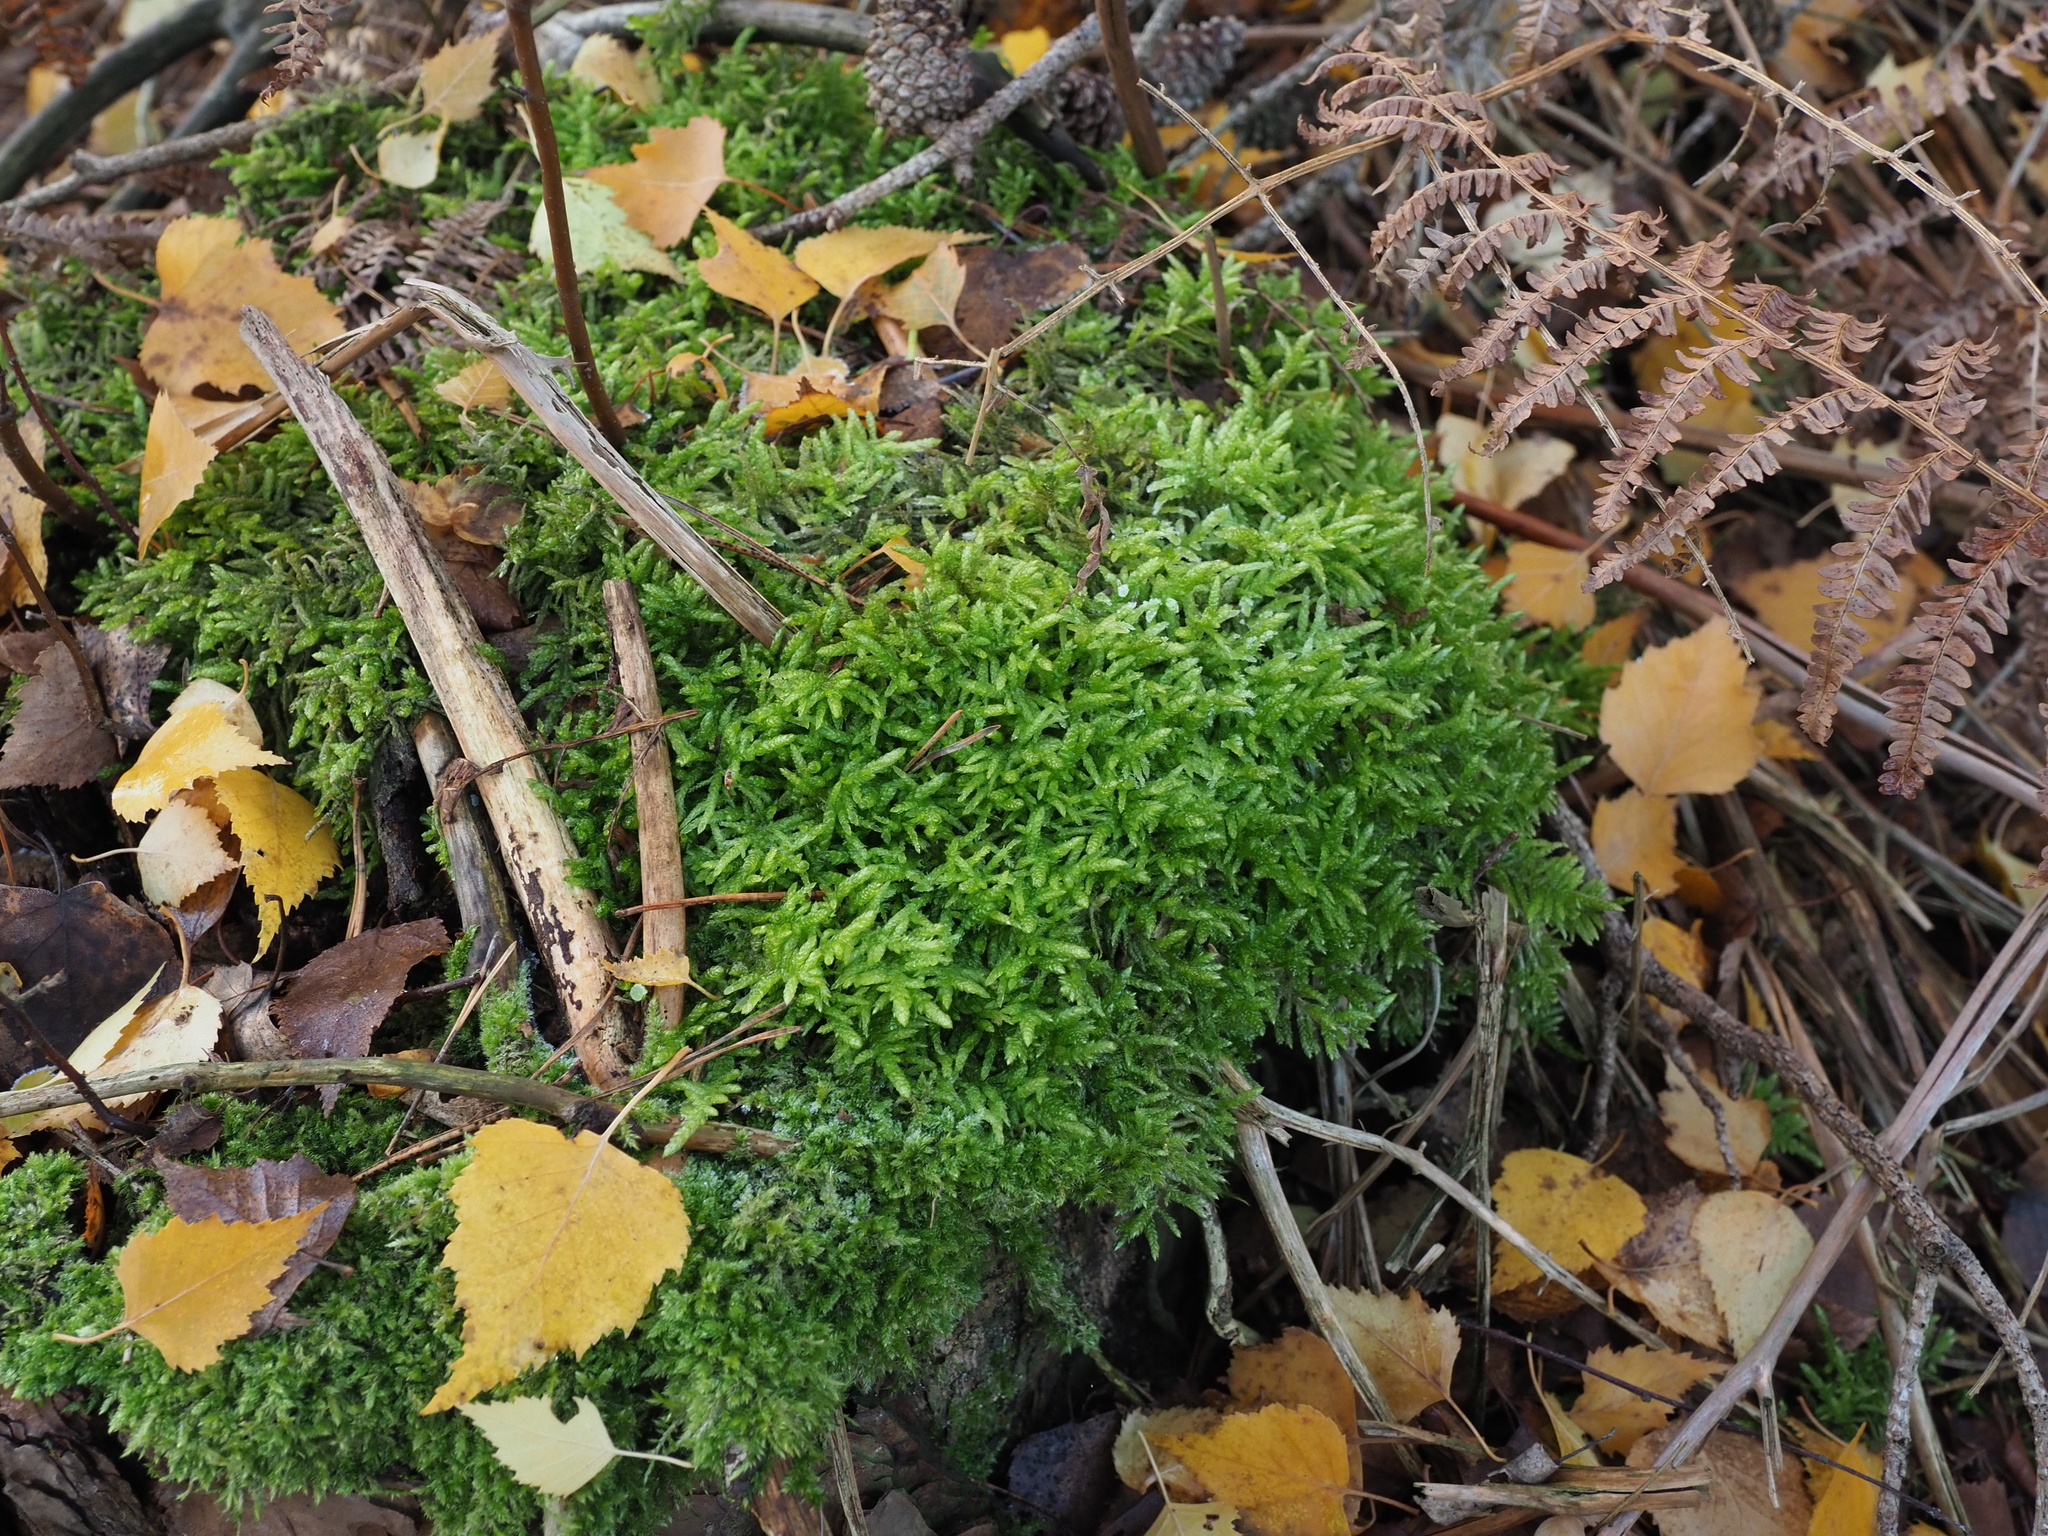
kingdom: Plantae
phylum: Bryophyta
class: Bryopsida
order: Hypnales
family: Brachytheciaceae
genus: Pseudoscleropodium
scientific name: Pseudoscleropodium purum
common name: Neat feather-moss
